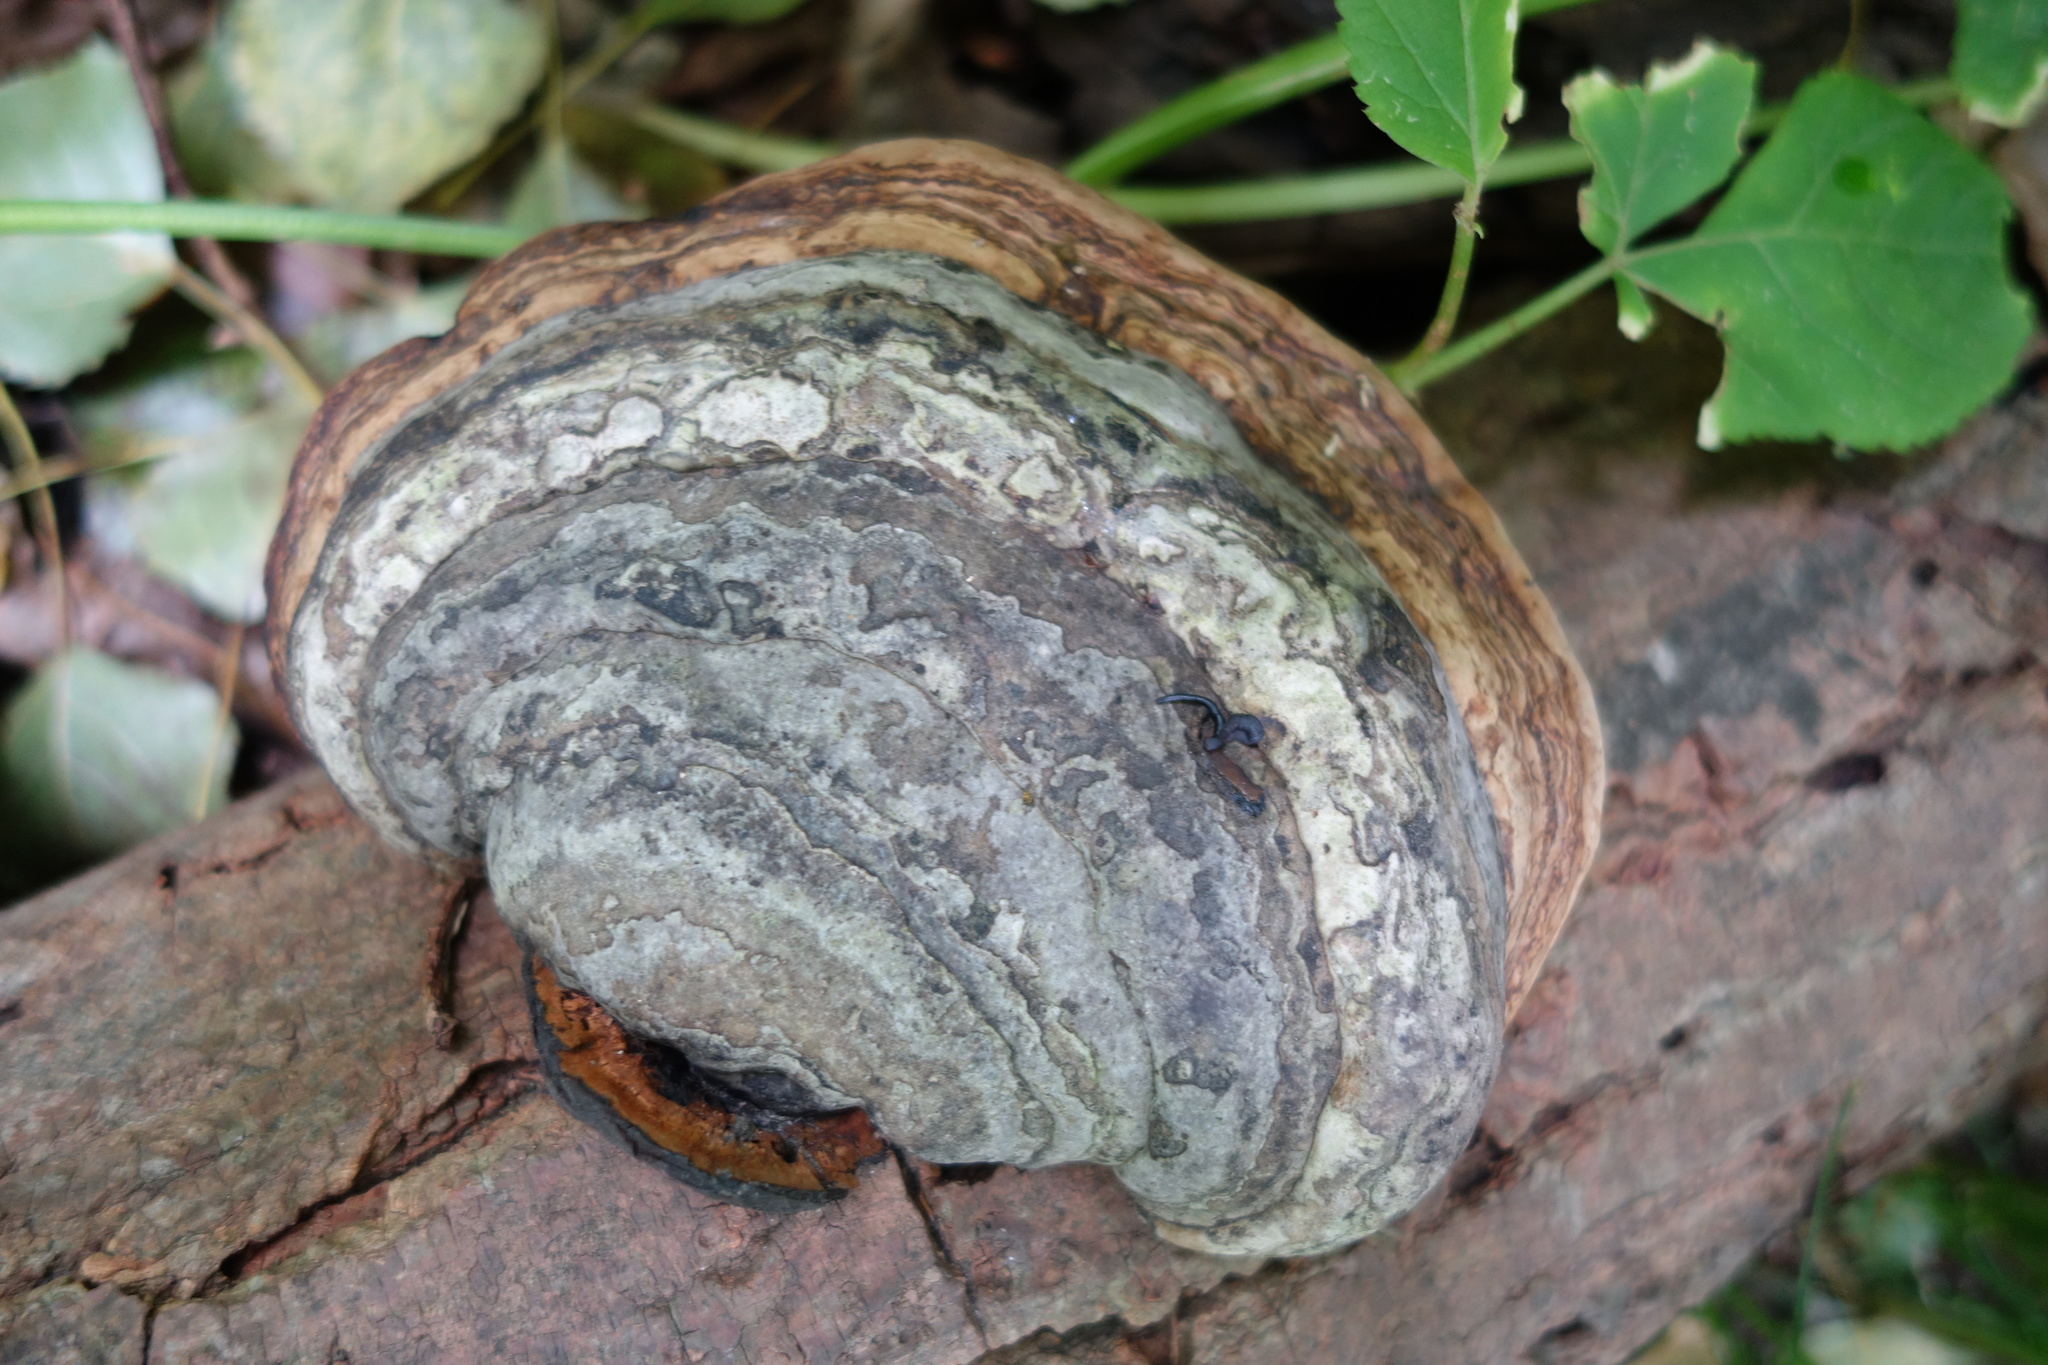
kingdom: Fungi
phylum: Basidiomycota
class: Agaricomycetes
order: Polyporales
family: Polyporaceae
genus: Fomes
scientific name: Fomes fomentarius
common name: Hoof fungus
